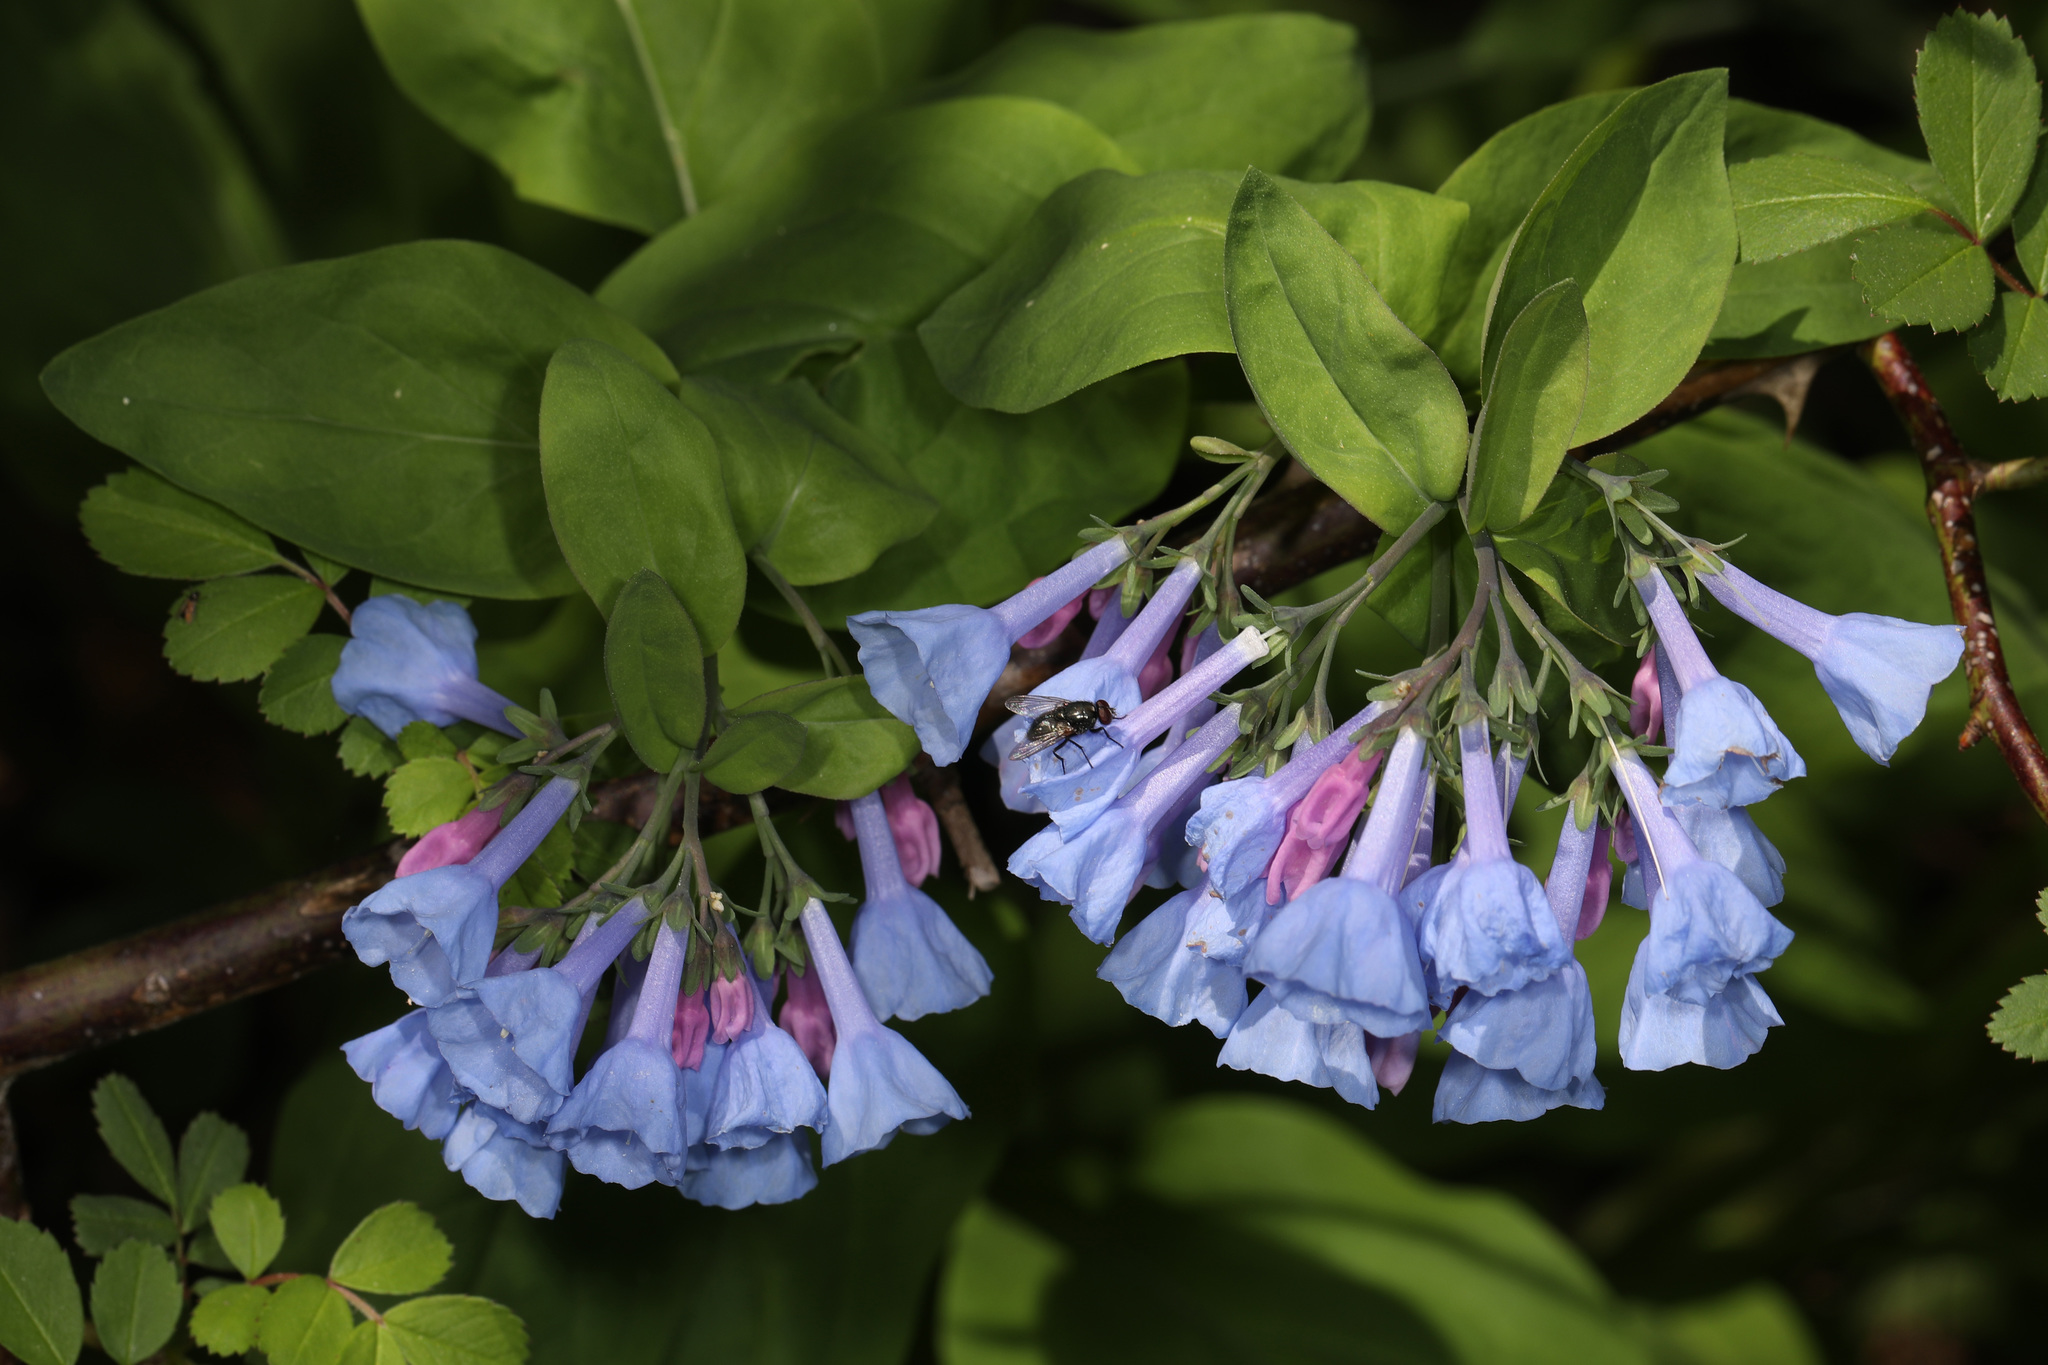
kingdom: Plantae
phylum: Tracheophyta
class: Magnoliopsida
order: Boraginales
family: Boraginaceae
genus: Mertensia
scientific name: Mertensia virginica
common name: Virginia bluebells
